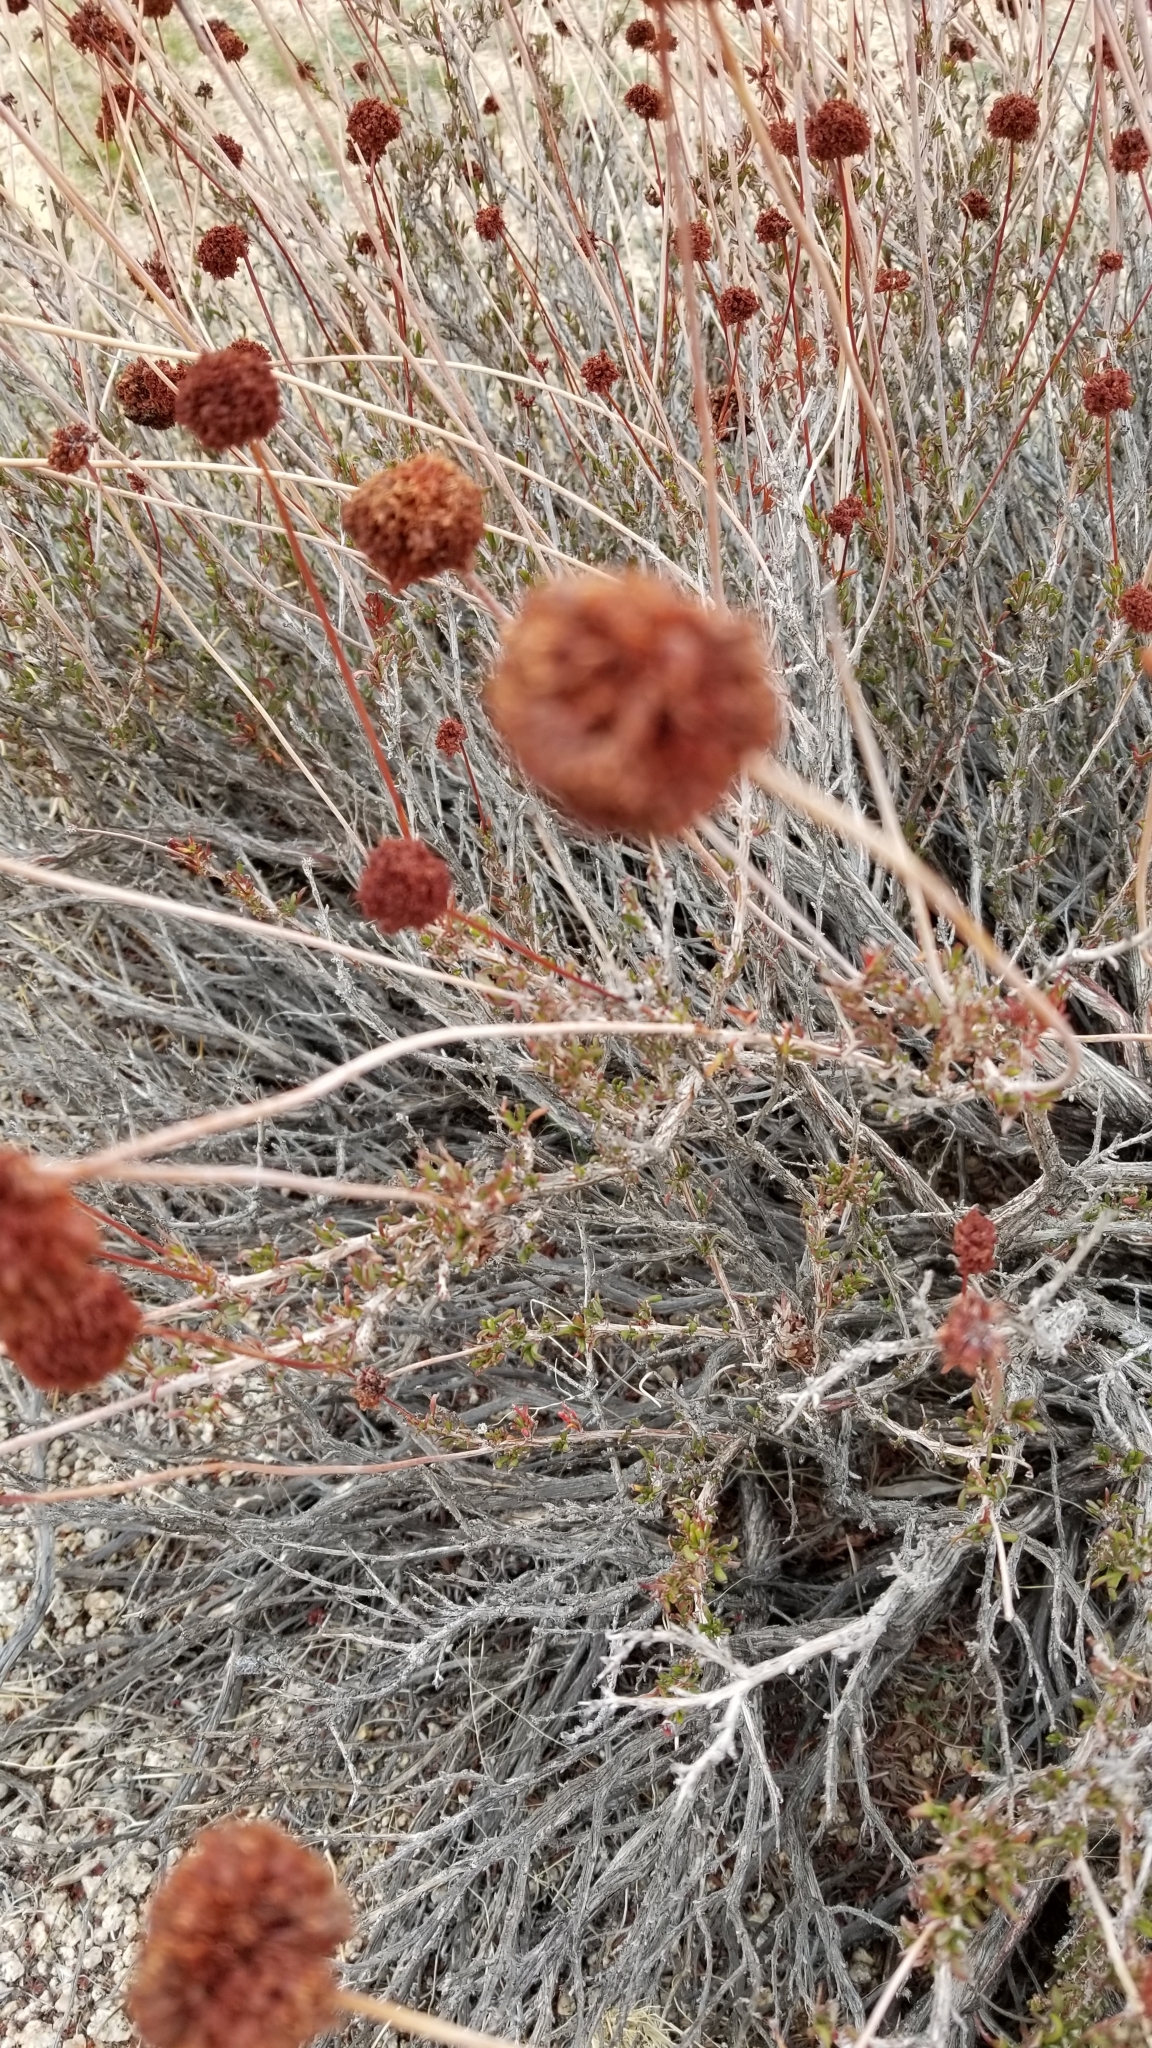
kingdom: Plantae
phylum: Tracheophyta
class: Magnoliopsida
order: Caryophyllales
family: Polygonaceae
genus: Eriogonum
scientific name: Eriogonum fasciculatum
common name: California wild buckwheat
